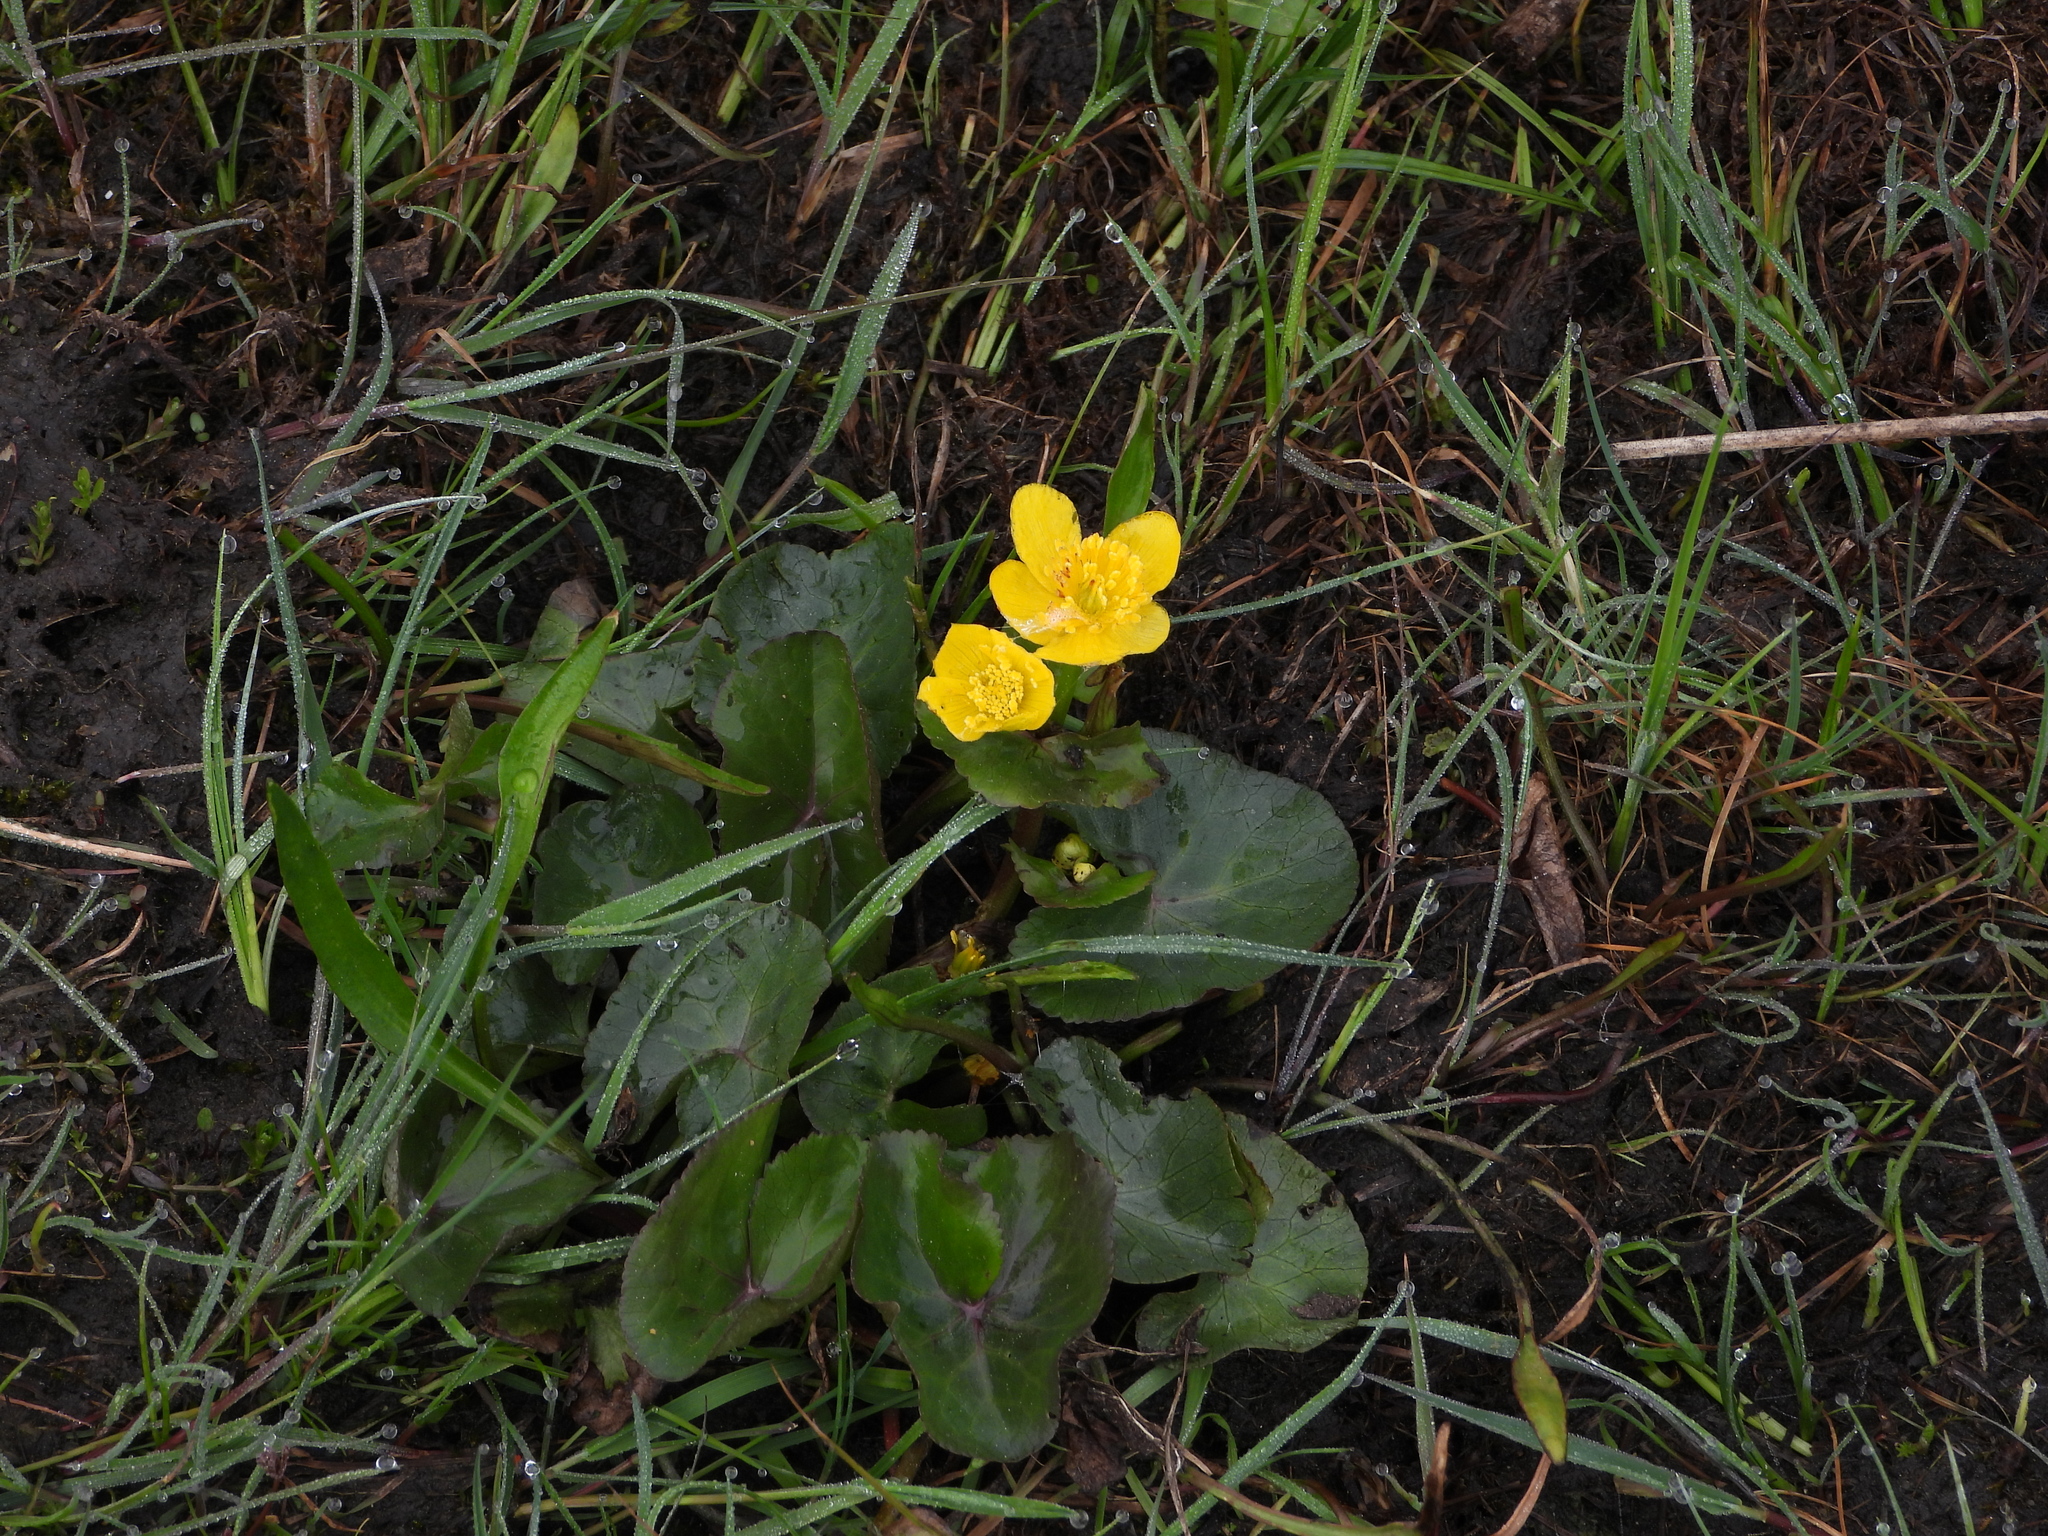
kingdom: Plantae
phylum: Tracheophyta
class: Magnoliopsida
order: Ranunculales
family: Ranunculaceae
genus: Caltha
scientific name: Caltha palustris
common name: Marsh marigold
